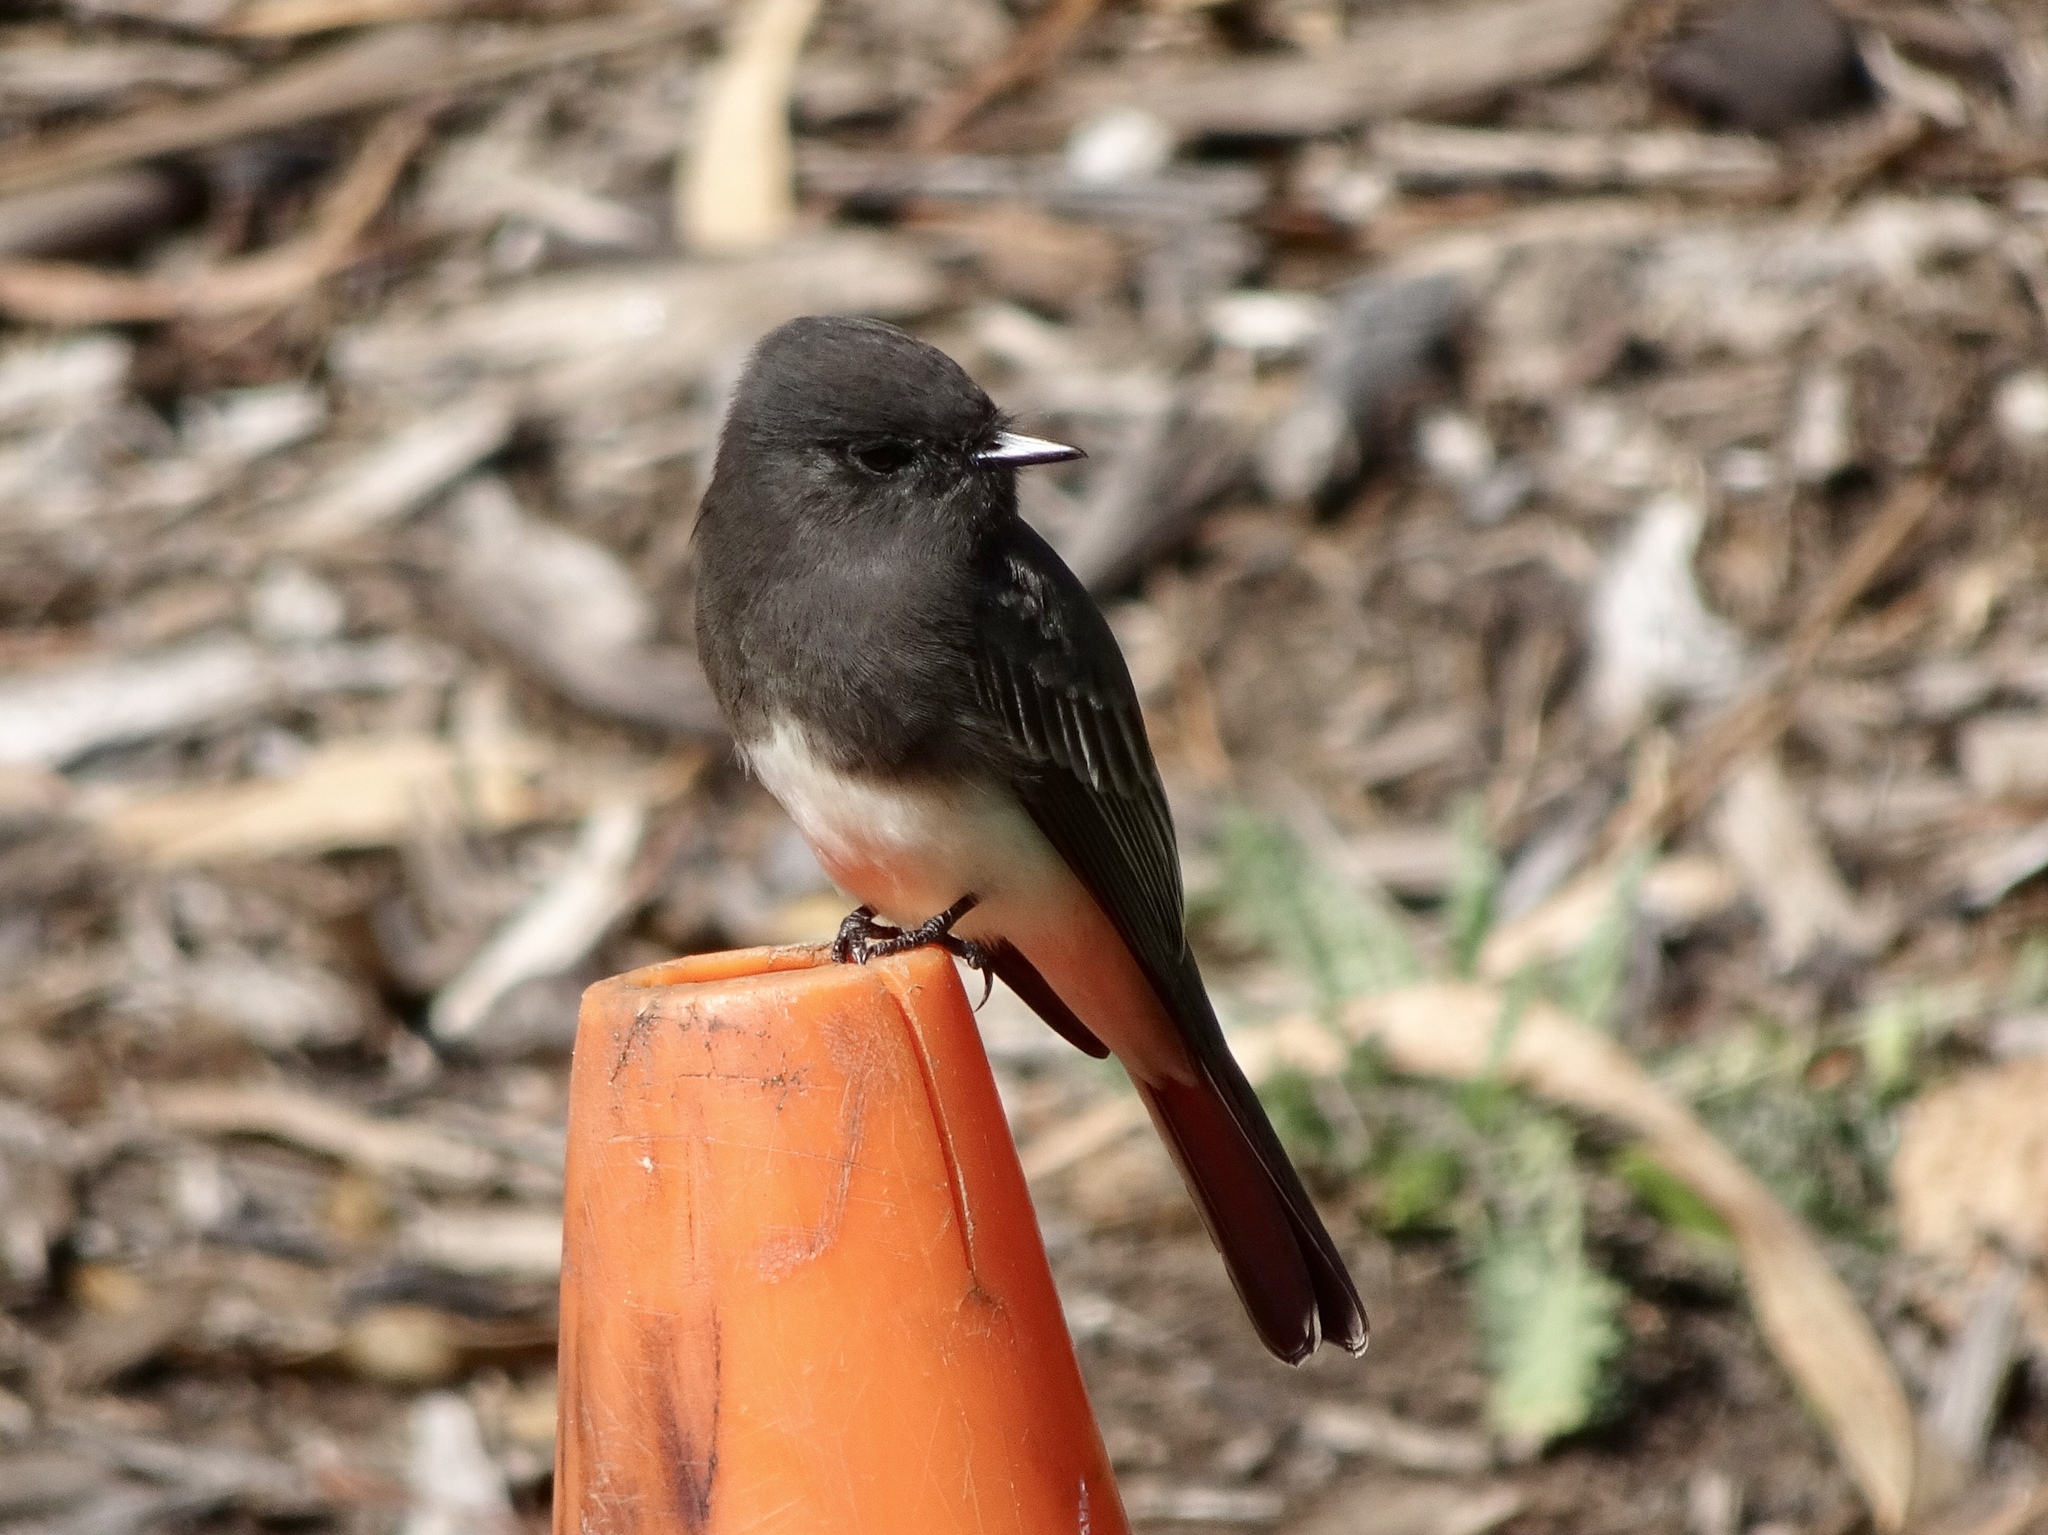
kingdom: Animalia
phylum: Chordata
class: Aves
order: Passeriformes
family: Tyrannidae
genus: Sayornis
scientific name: Sayornis nigricans
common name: Black phoebe
